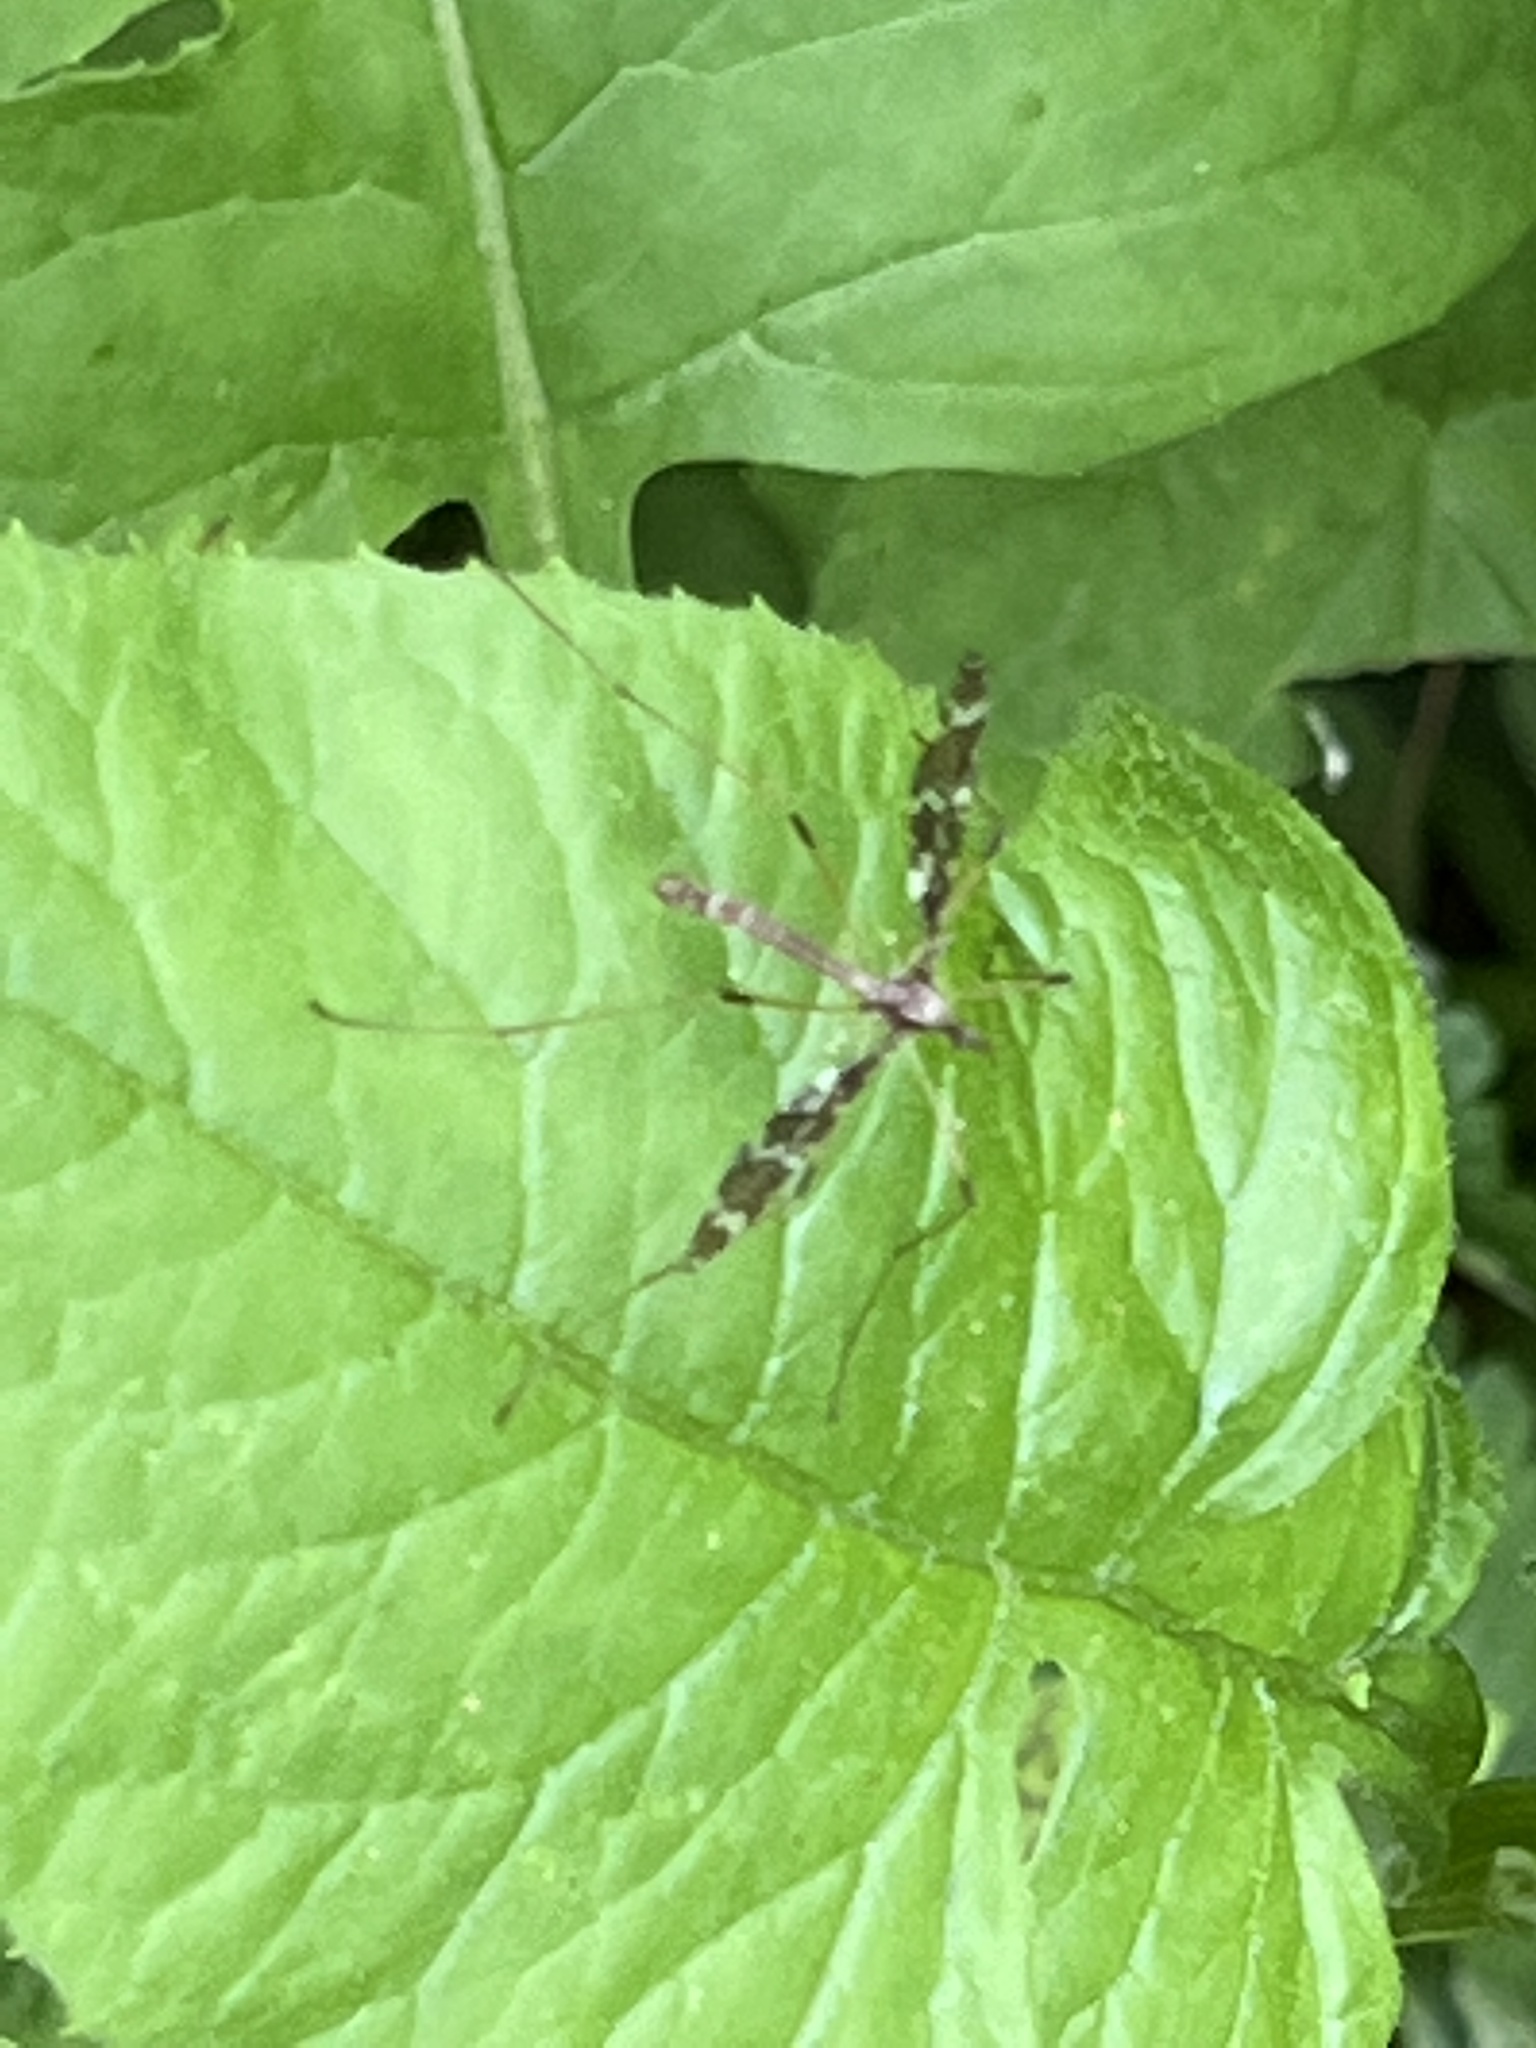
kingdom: Animalia
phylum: Arthropoda
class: Insecta
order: Diptera
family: Limoniidae
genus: Epiphragma
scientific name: Epiphragma fasciapenne
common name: Band-winged crane fly
